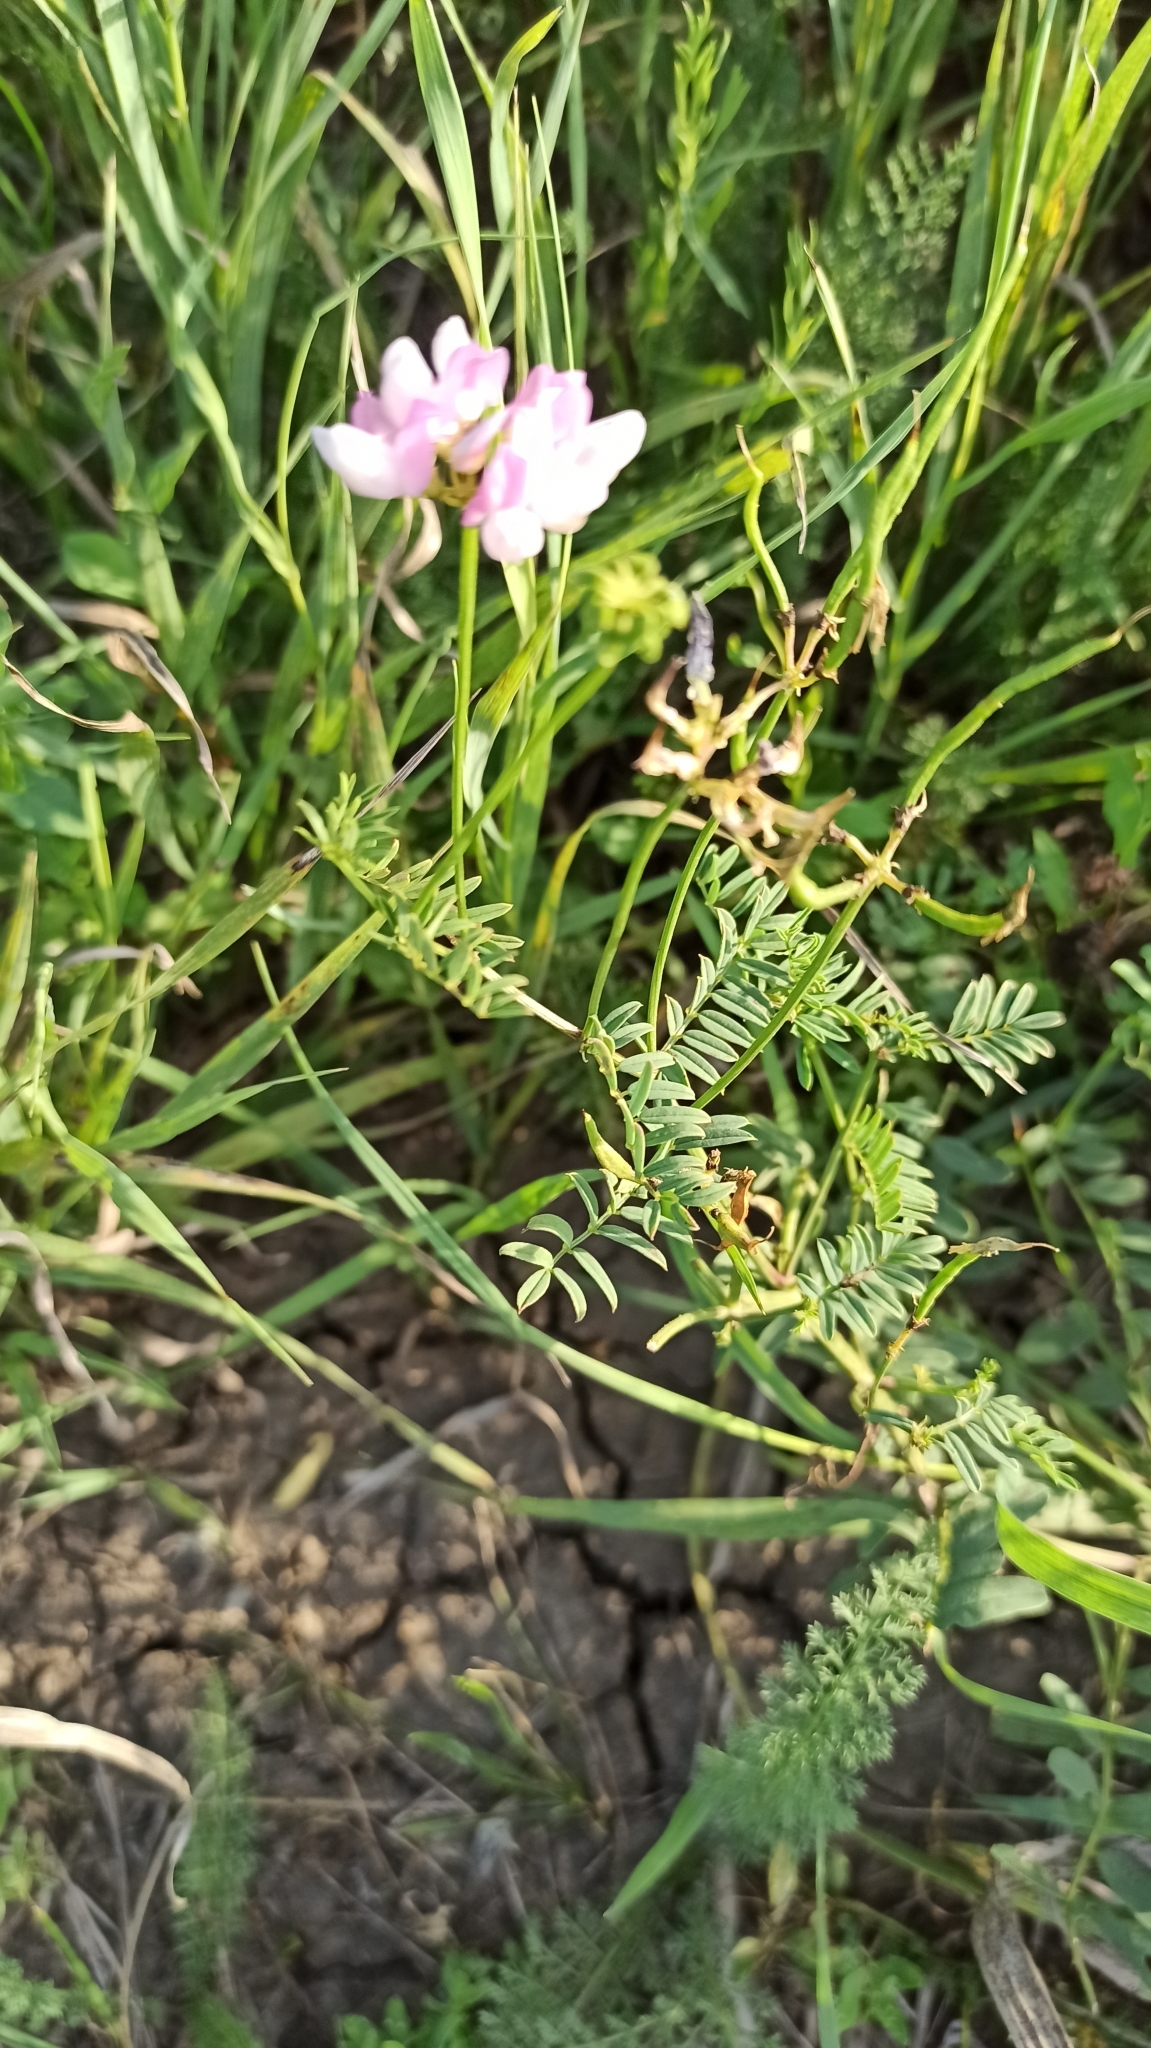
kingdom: Plantae
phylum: Tracheophyta
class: Magnoliopsida
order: Fabales
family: Fabaceae
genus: Coronilla
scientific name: Coronilla varia
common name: Crownvetch
